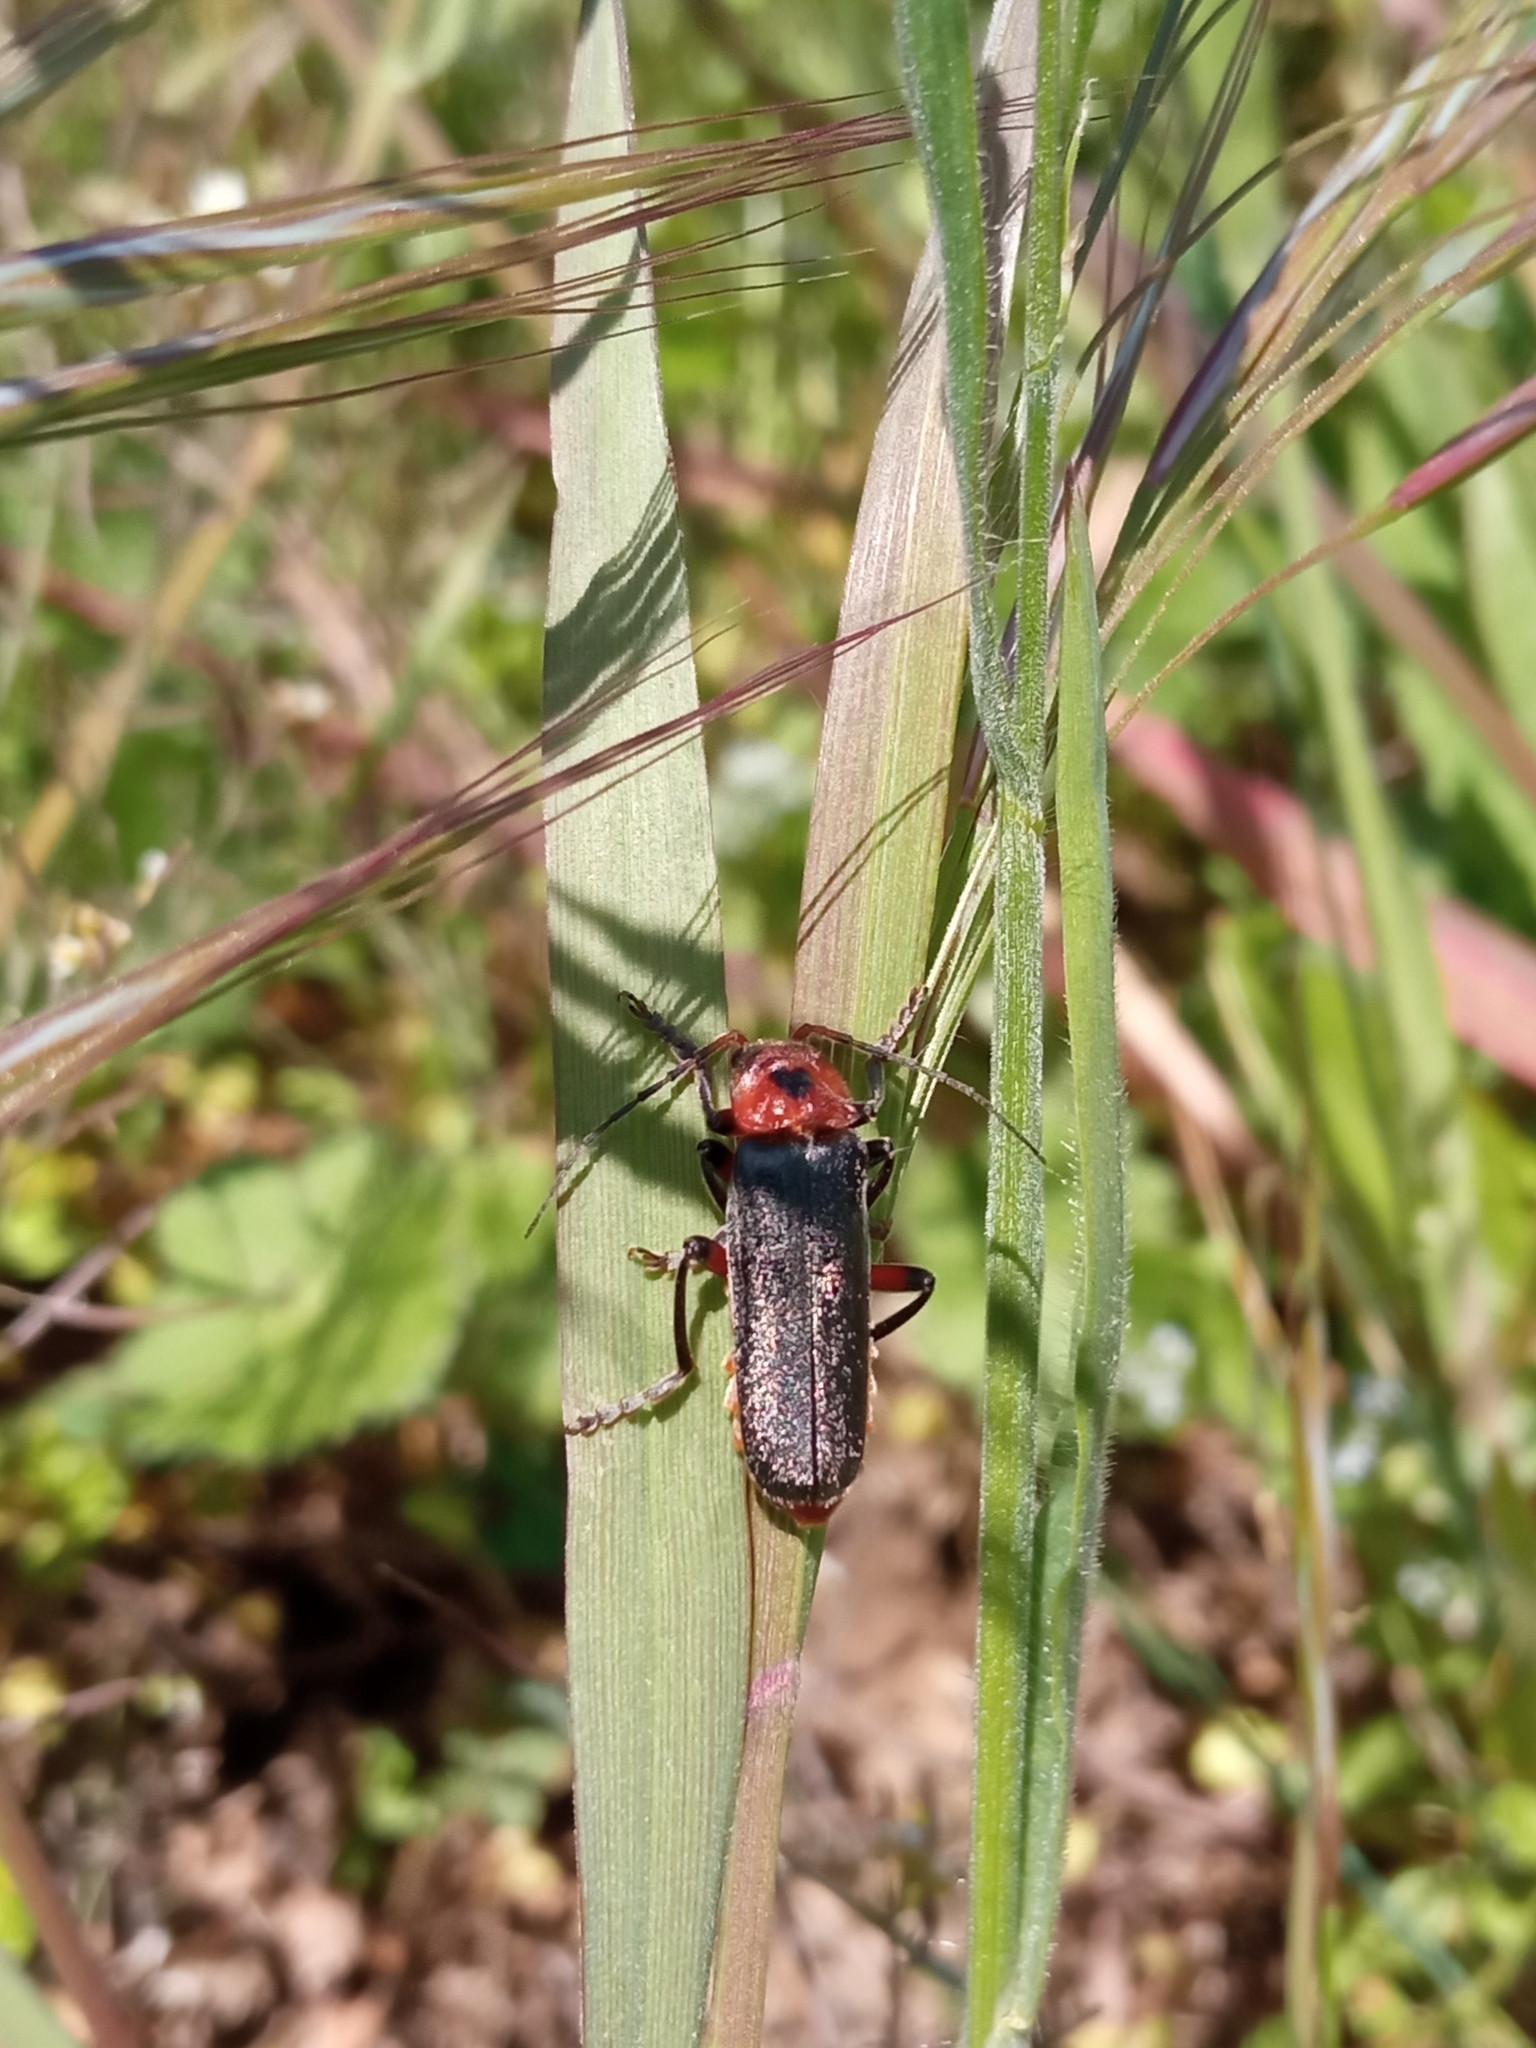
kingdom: Animalia
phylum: Arthropoda
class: Insecta
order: Coleoptera
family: Cantharidae
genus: Cantharis
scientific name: Cantharis rustica
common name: Soldier beetle
